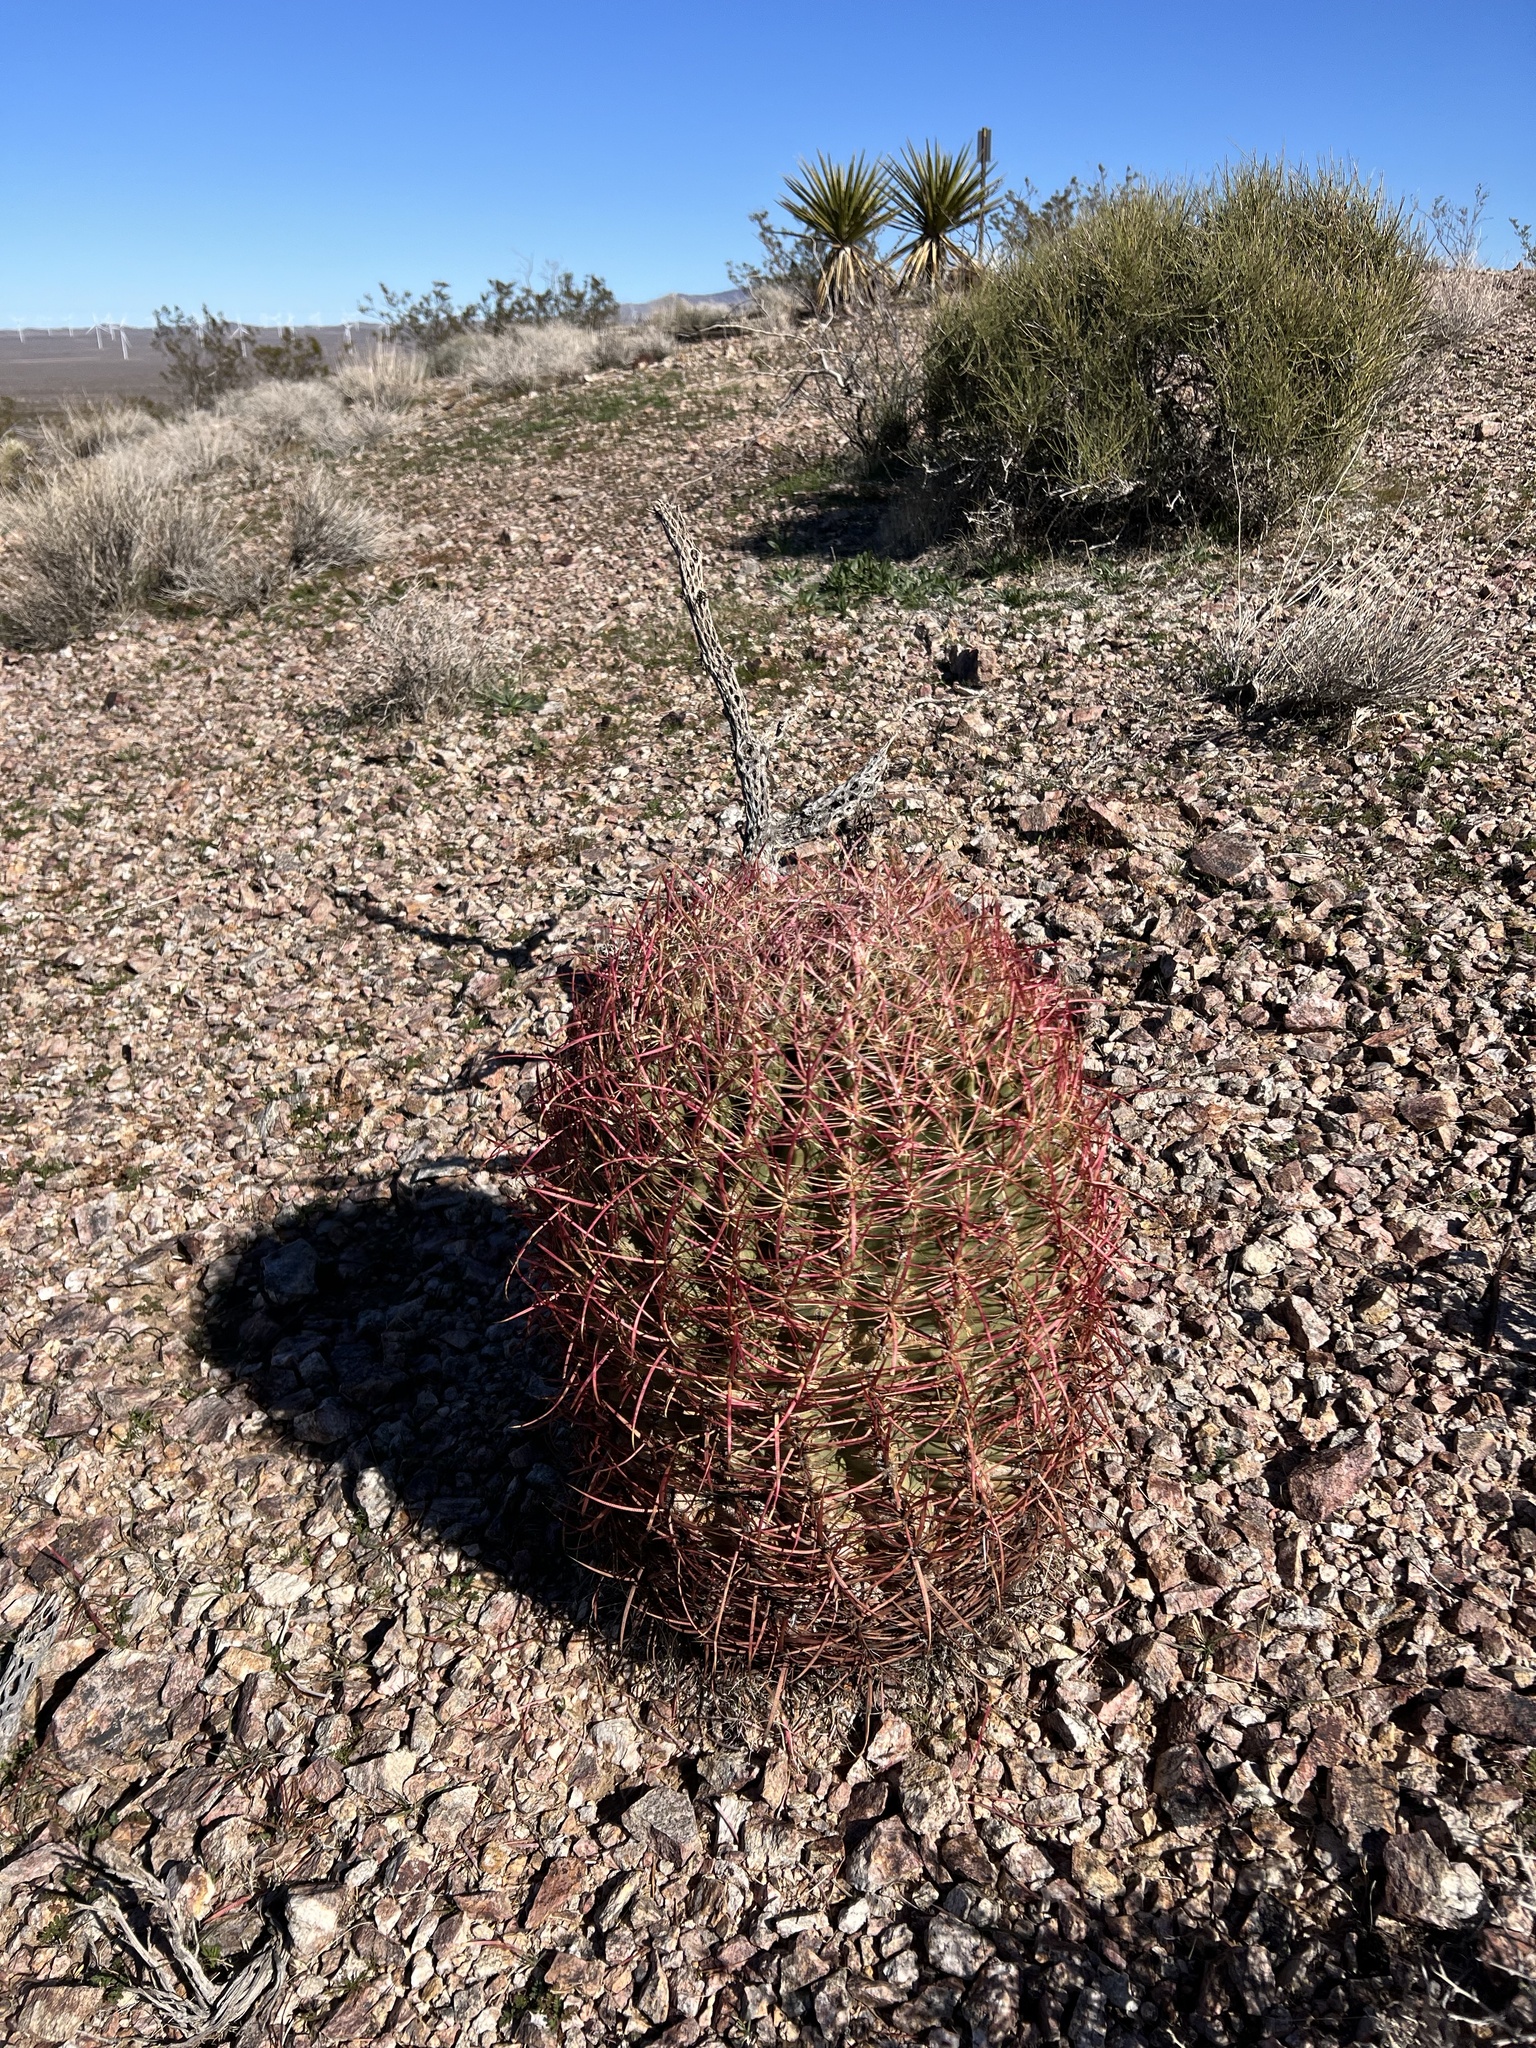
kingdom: Plantae
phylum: Tracheophyta
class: Magnoliopsida
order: Caryophyllales
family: Cactaceae
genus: Ferocactus
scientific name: Ferocactus cylindraceus
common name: California barrel cactus
